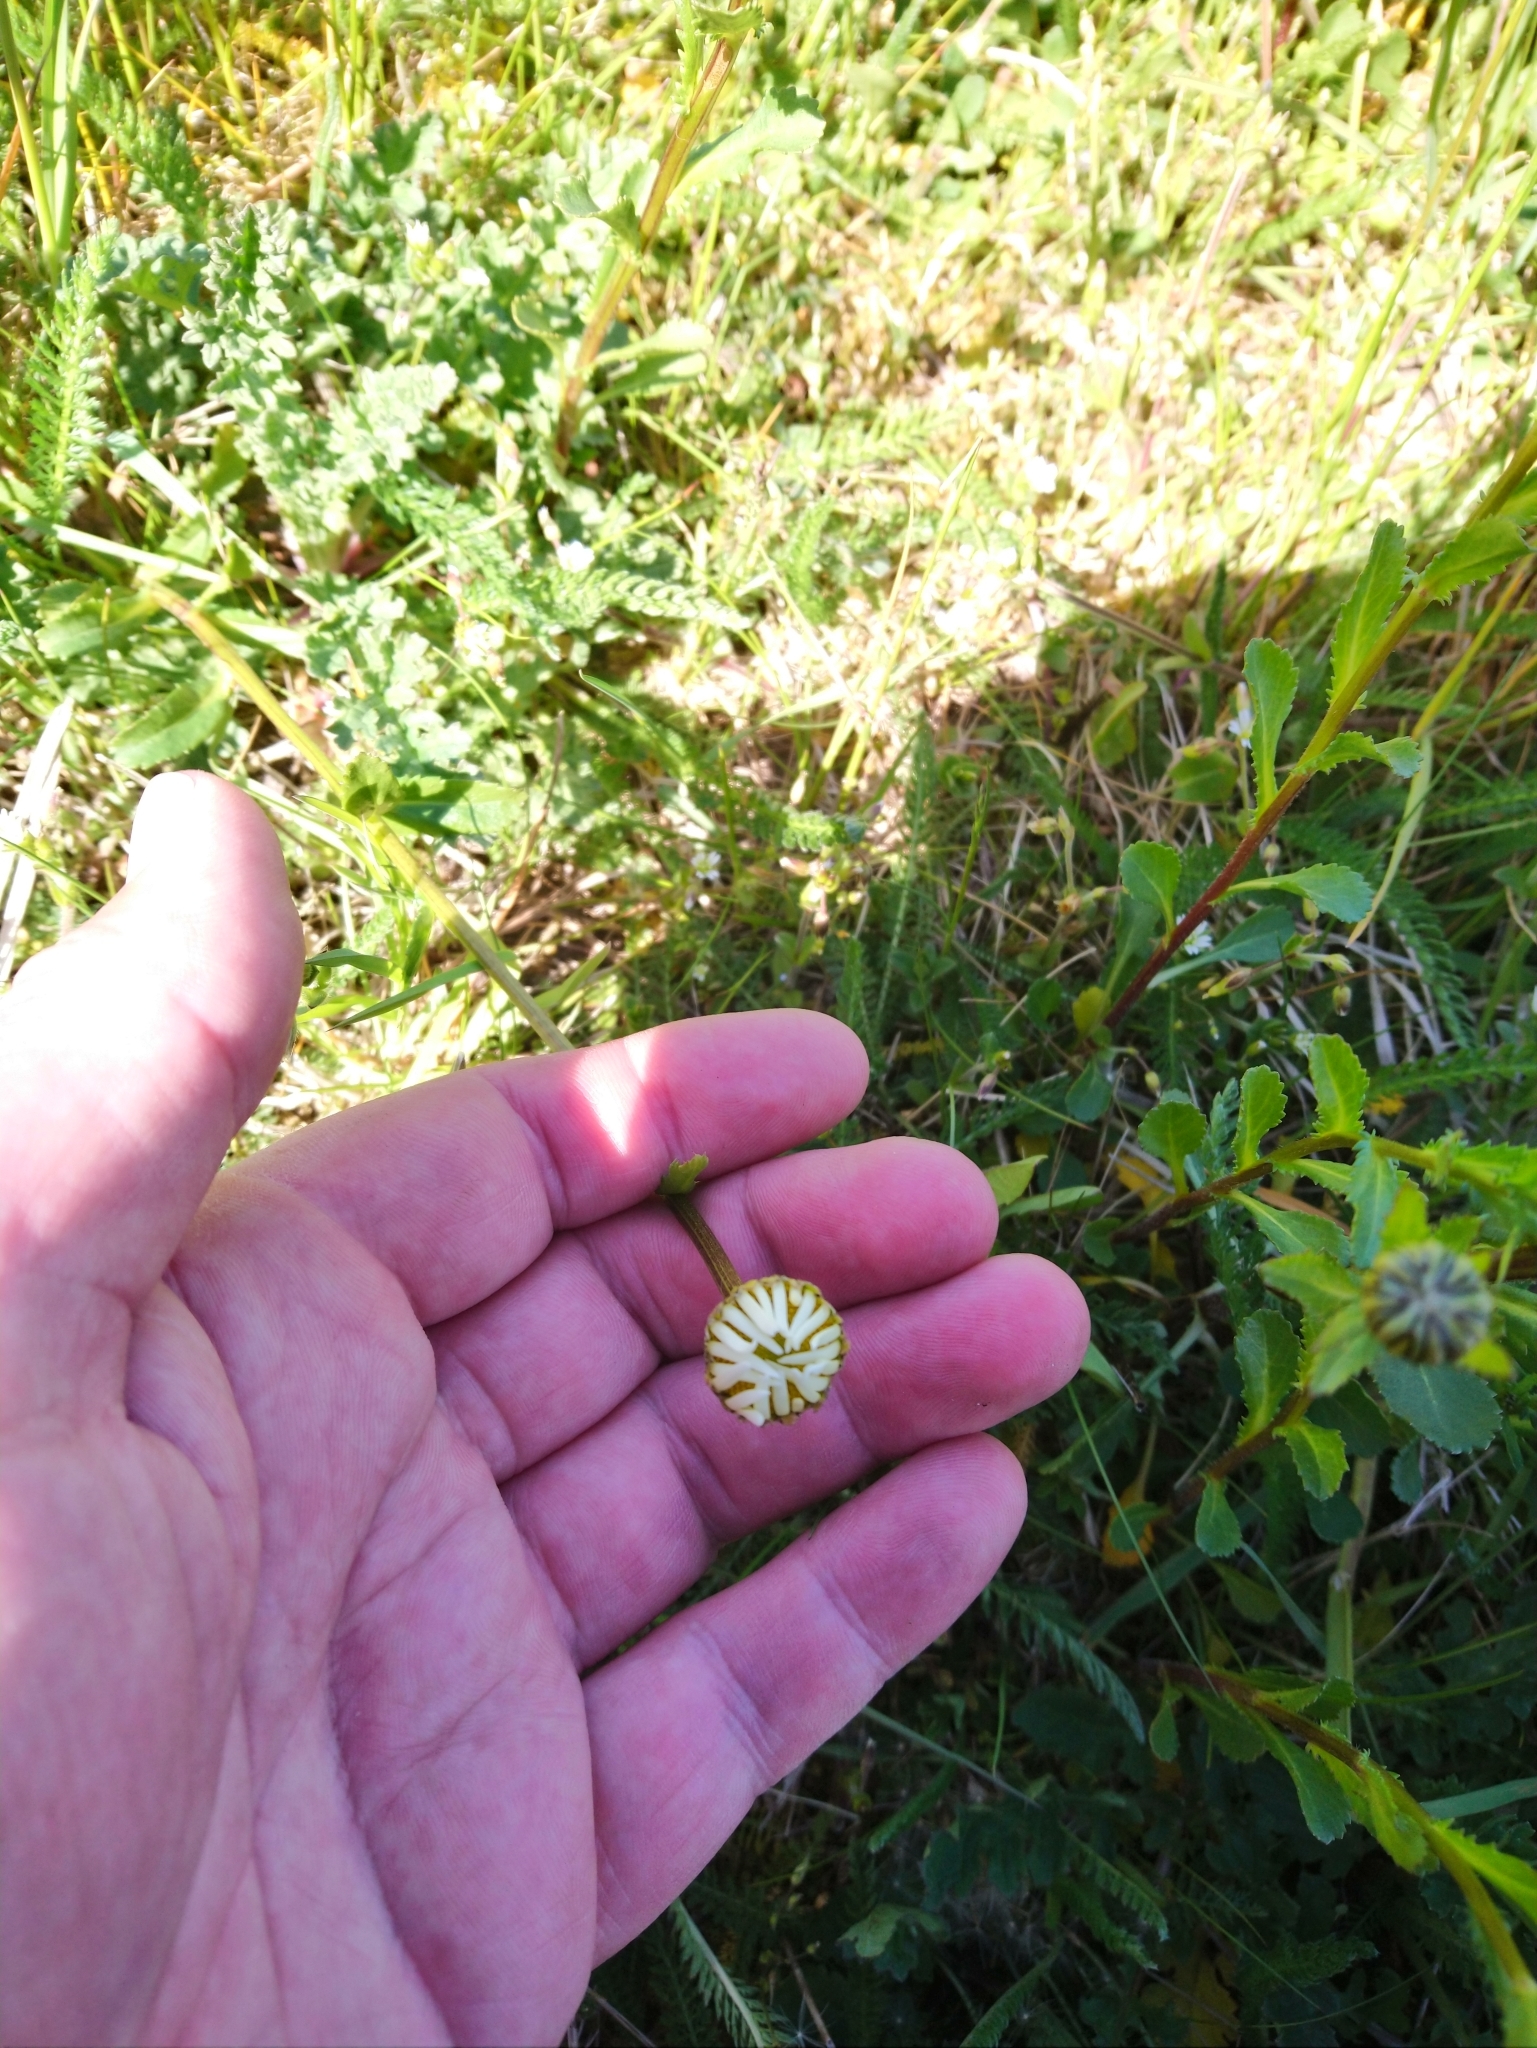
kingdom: Plantae
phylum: Tracheophyta
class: Magnoliopsida
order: Asterales
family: Asteraceae
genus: Leucanthemum
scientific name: Leucanthemum vulgare
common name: Oxeye daisy
